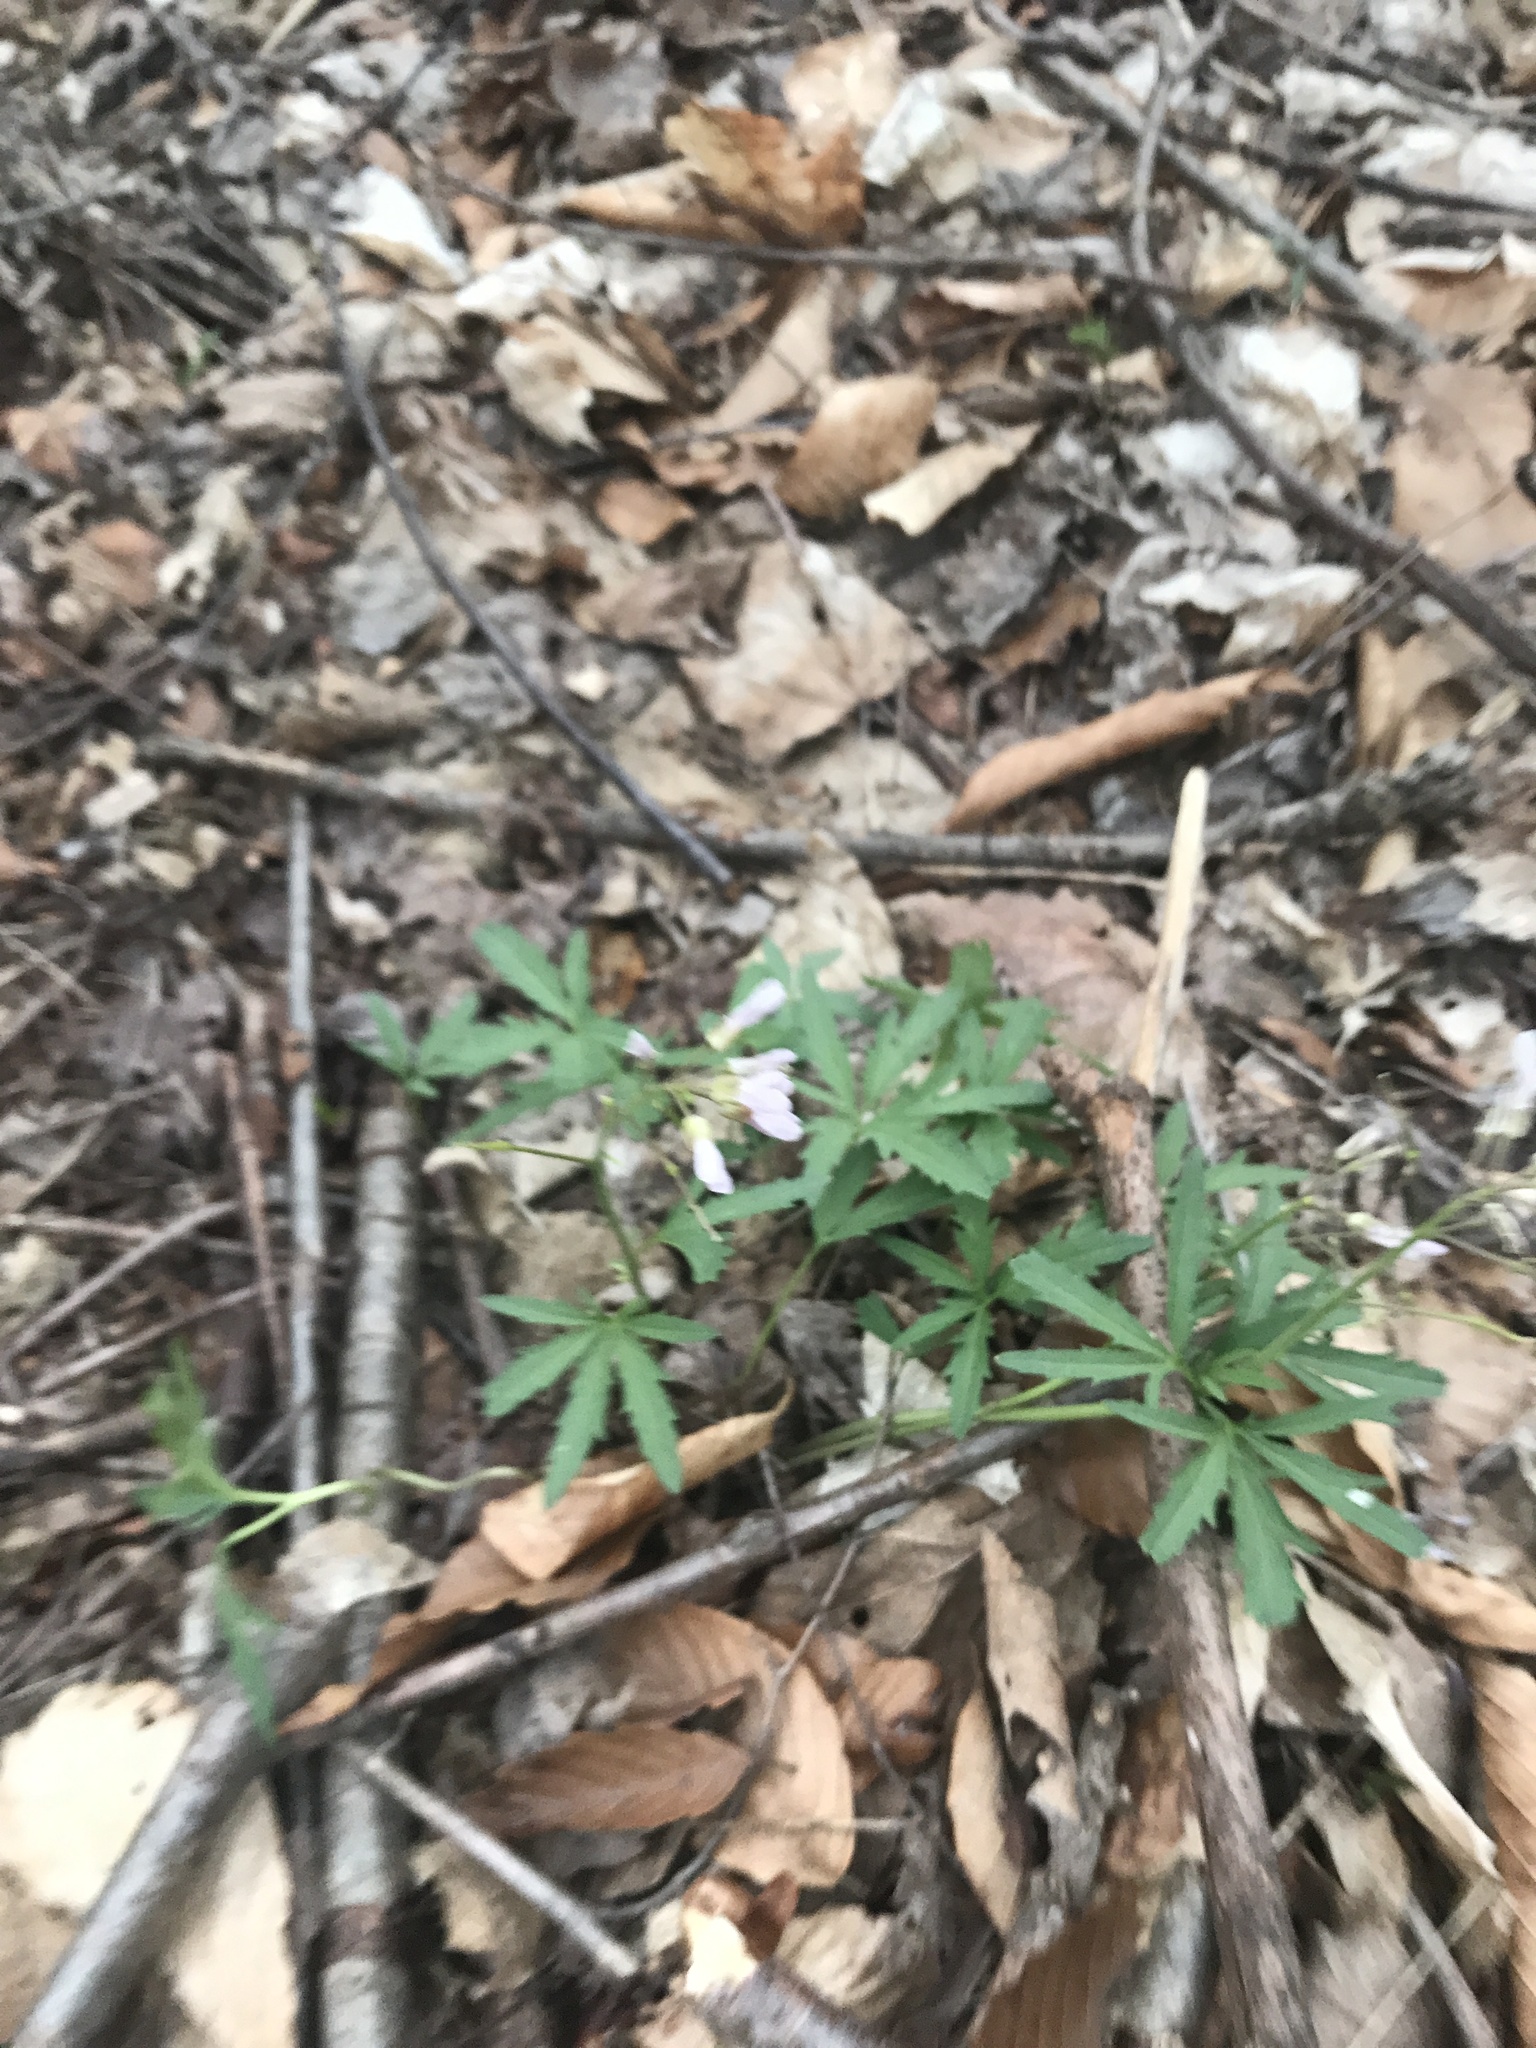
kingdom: Plantae
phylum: Tracheophyta
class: Magnoliopsida
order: Brassicales
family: Brassicaceae
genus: Cardamine
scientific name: Cardamine concatenata
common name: Cut-leaf toothcup
